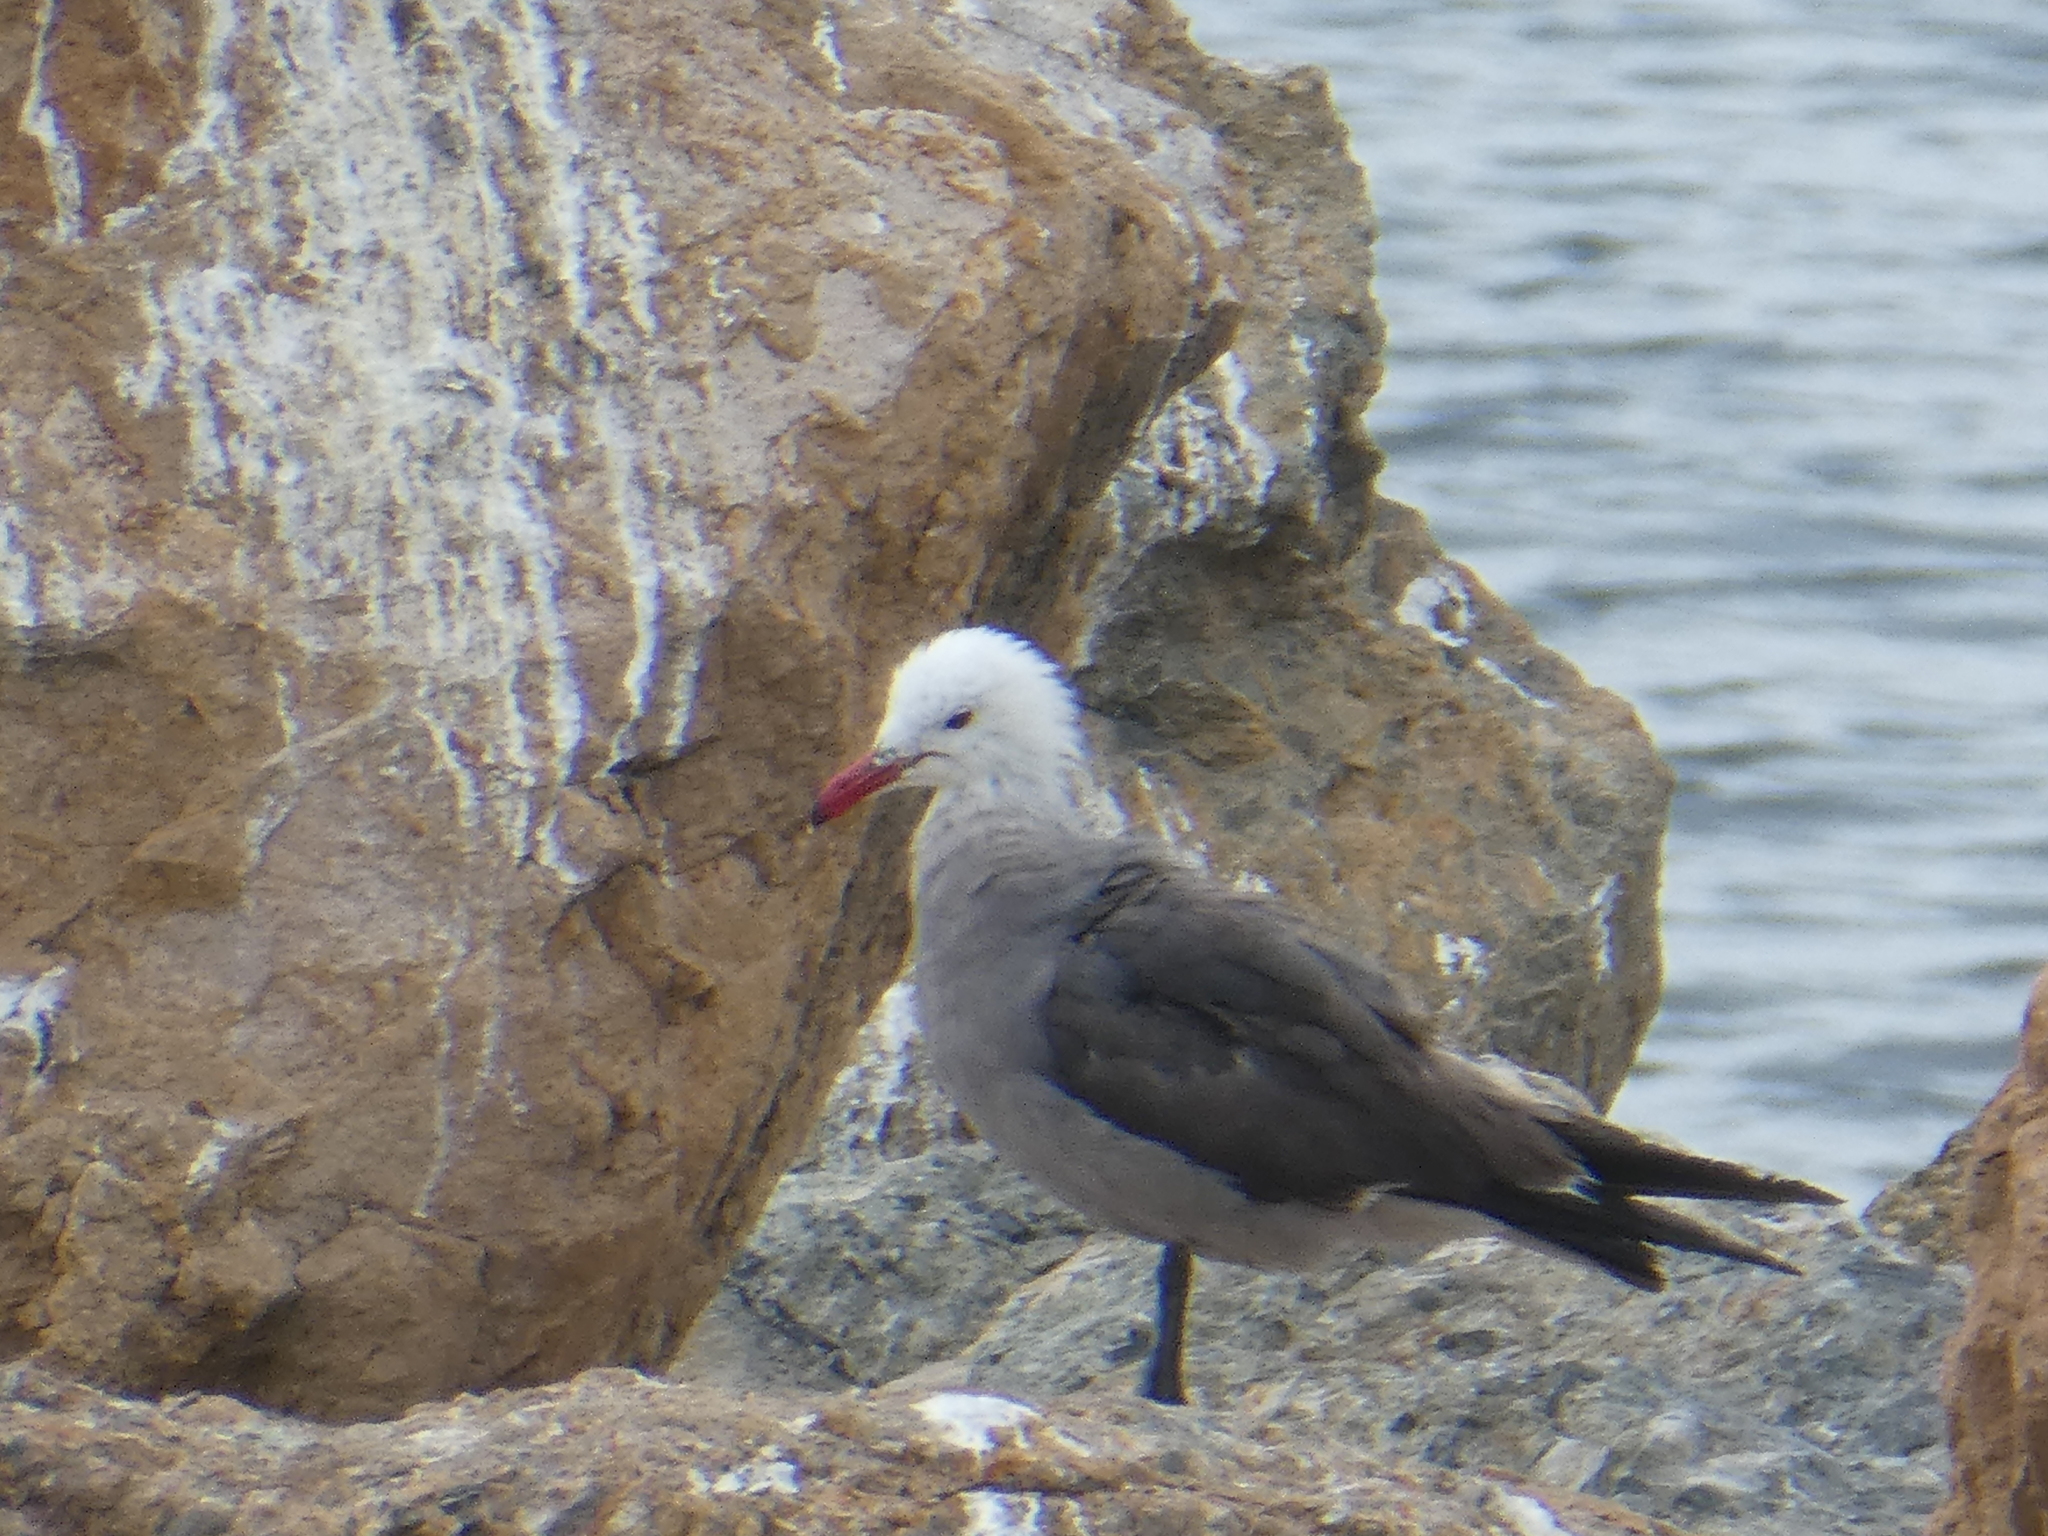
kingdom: Animalia
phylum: Chordata
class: Aves
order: Charadriiformes
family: Laridae
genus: Larus
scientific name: Larus heermanni
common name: Heermann's gull
